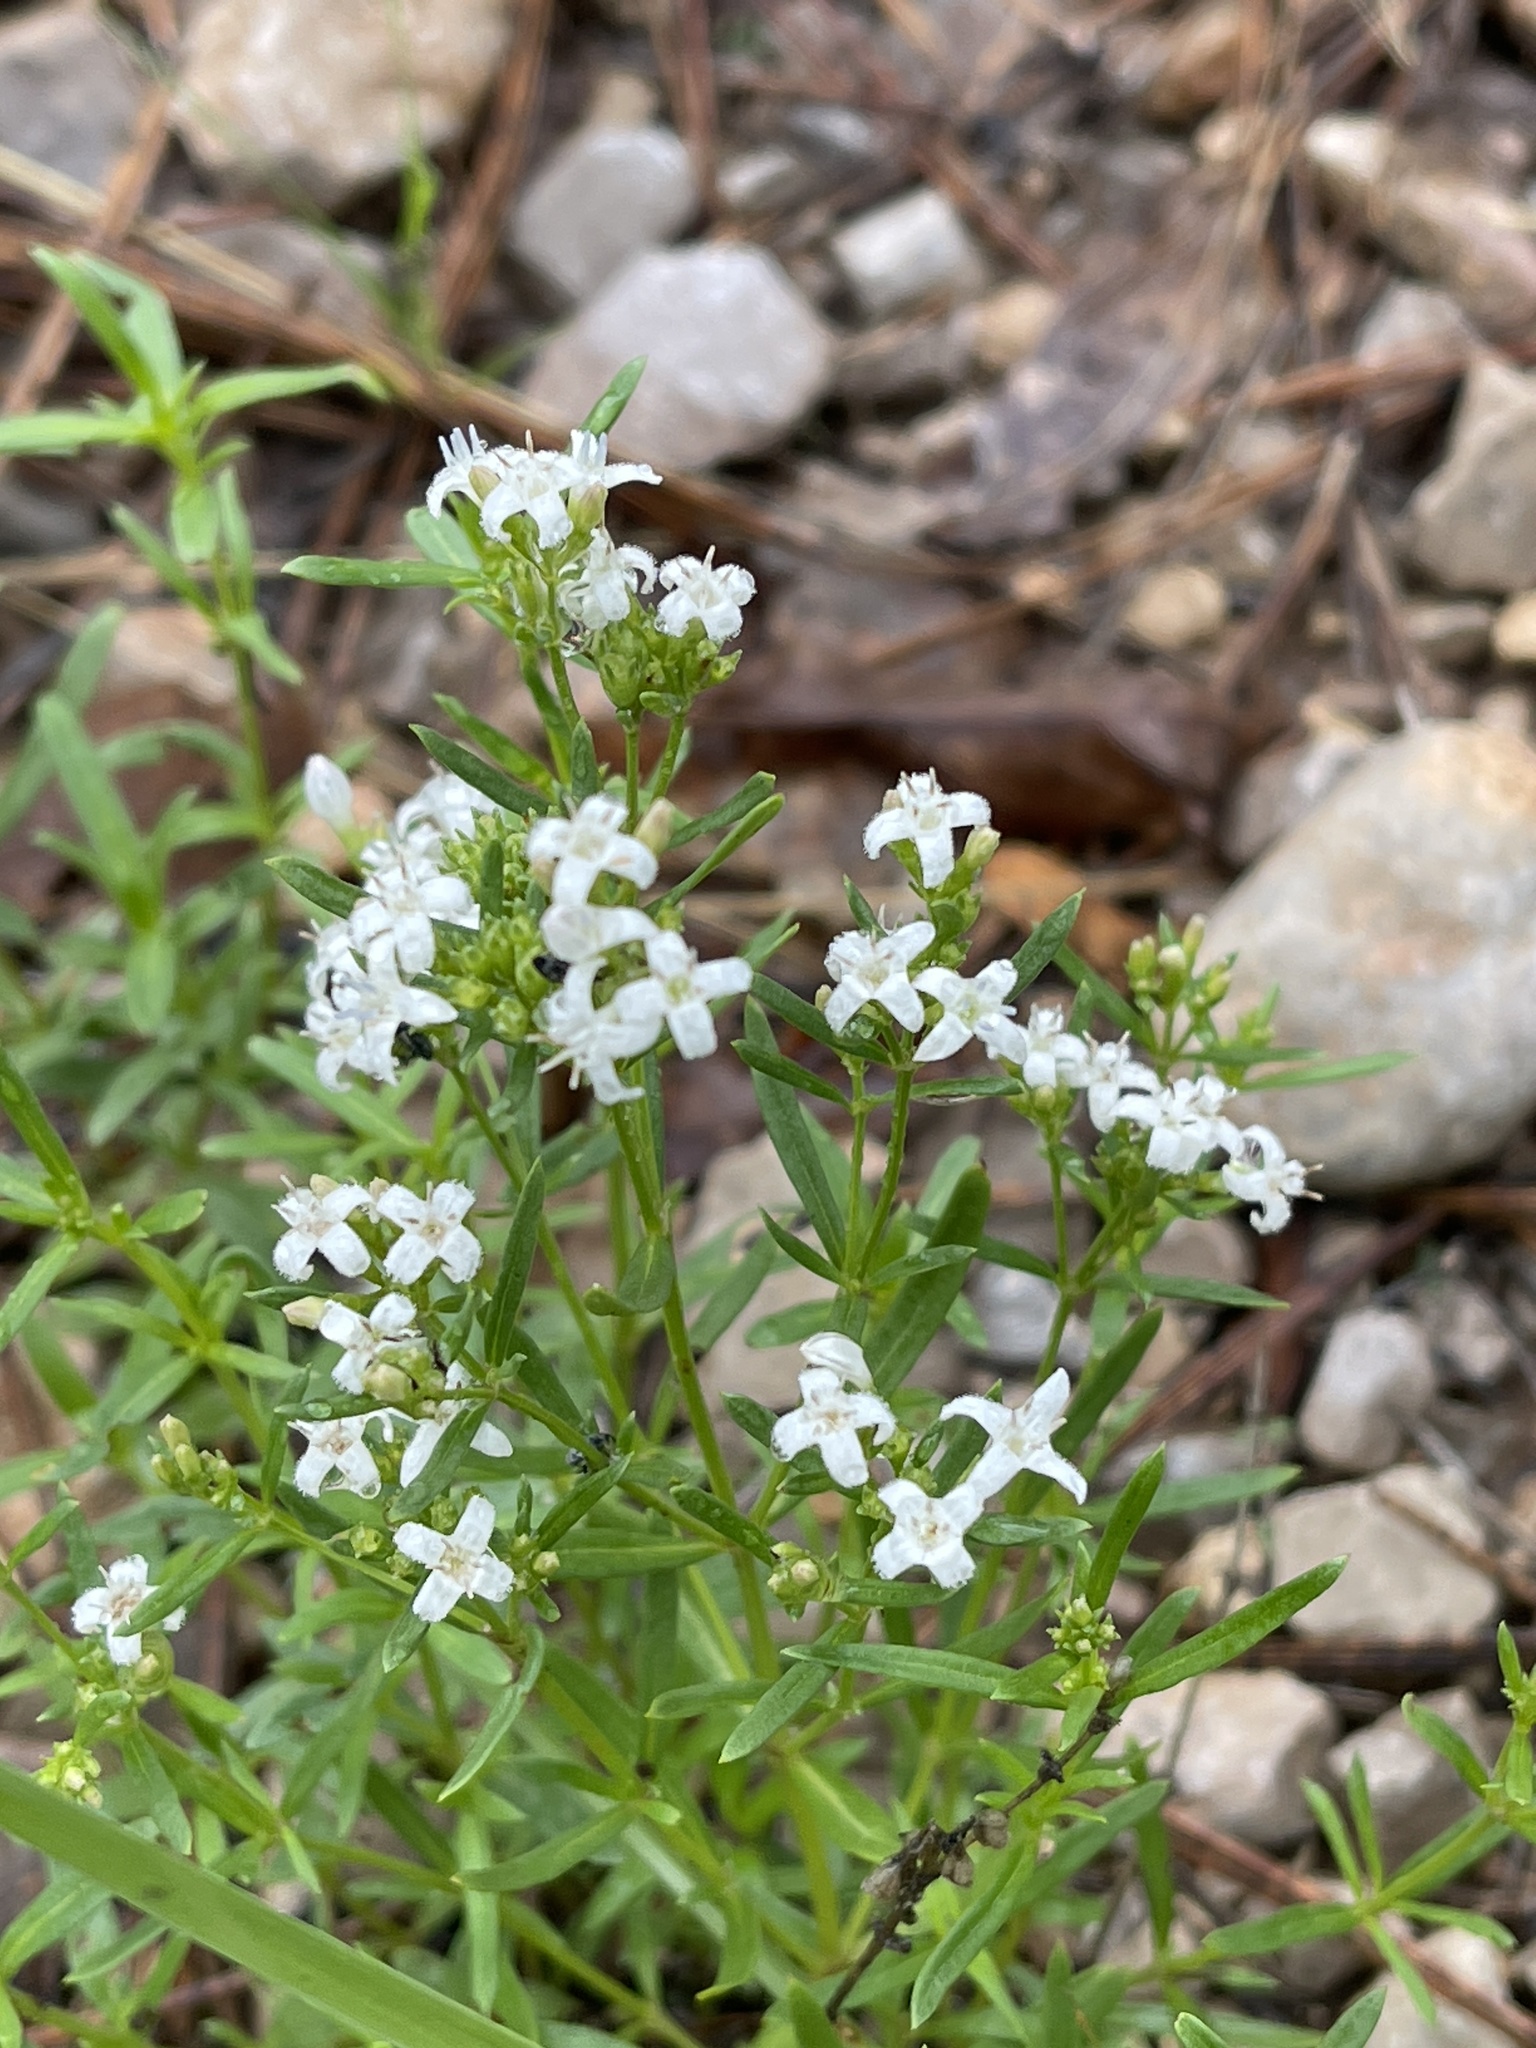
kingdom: Plantae
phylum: Tracheophyta
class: Magnoliopsida
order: Gentianales
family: Rubiaceae
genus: Stenaria
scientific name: Stenaria nigricans
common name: Diamondflowers
